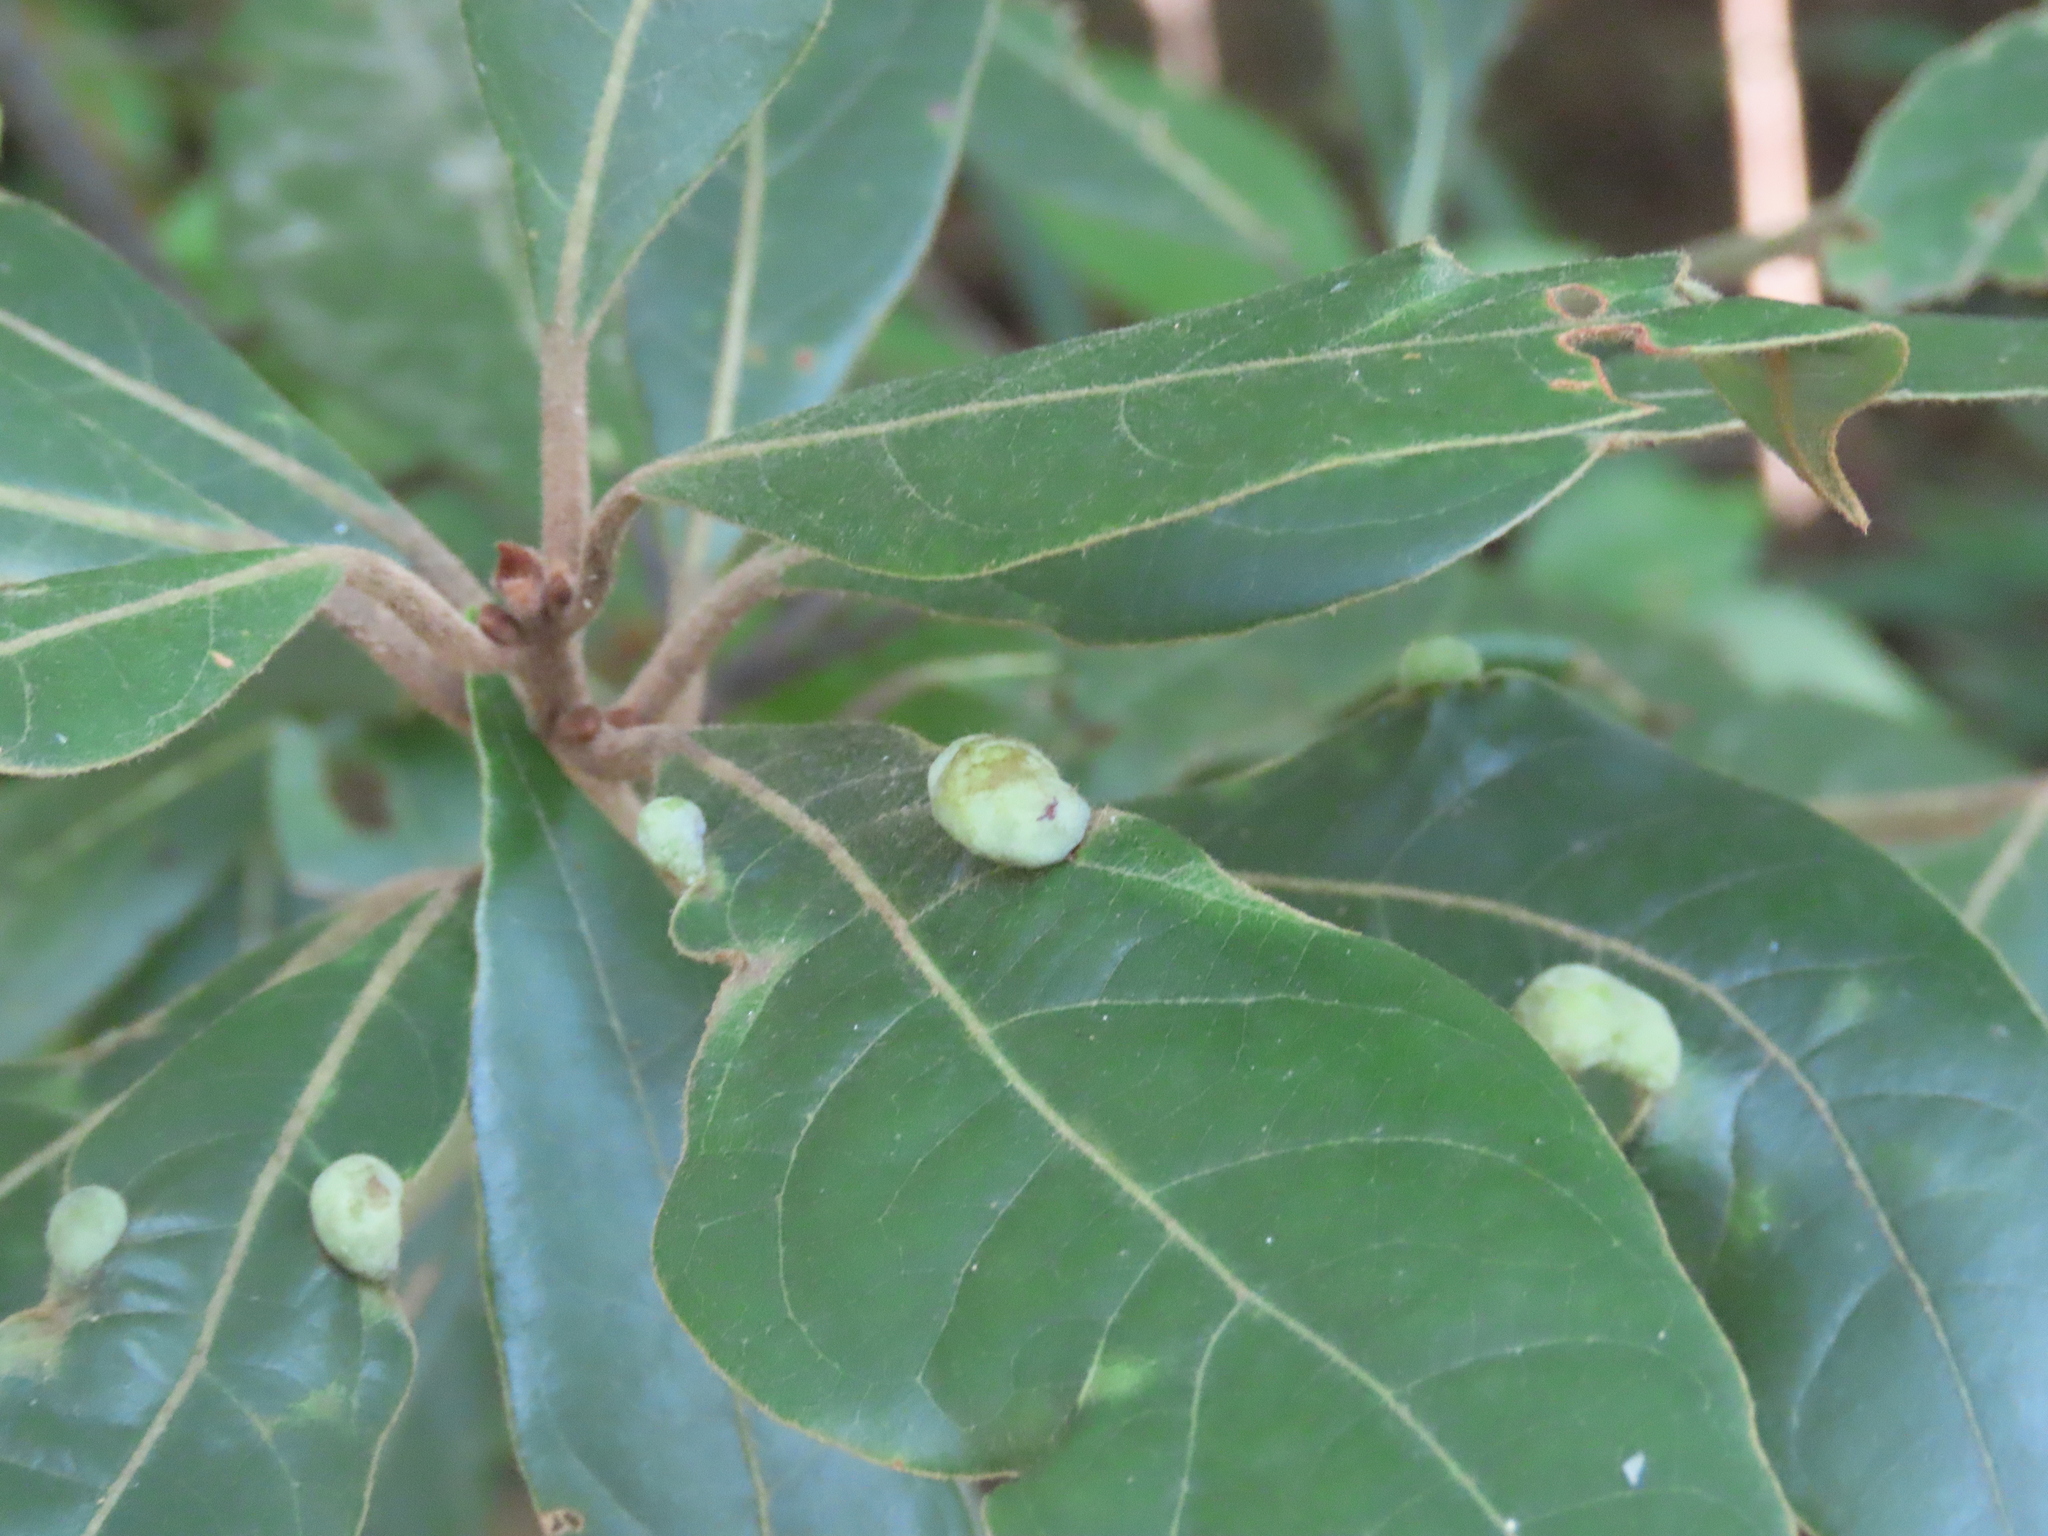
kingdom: Animalia
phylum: Arthropoda
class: Insecta
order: Hemiptera
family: Triozidae
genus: Trioza
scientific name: Trioza magnoliae
